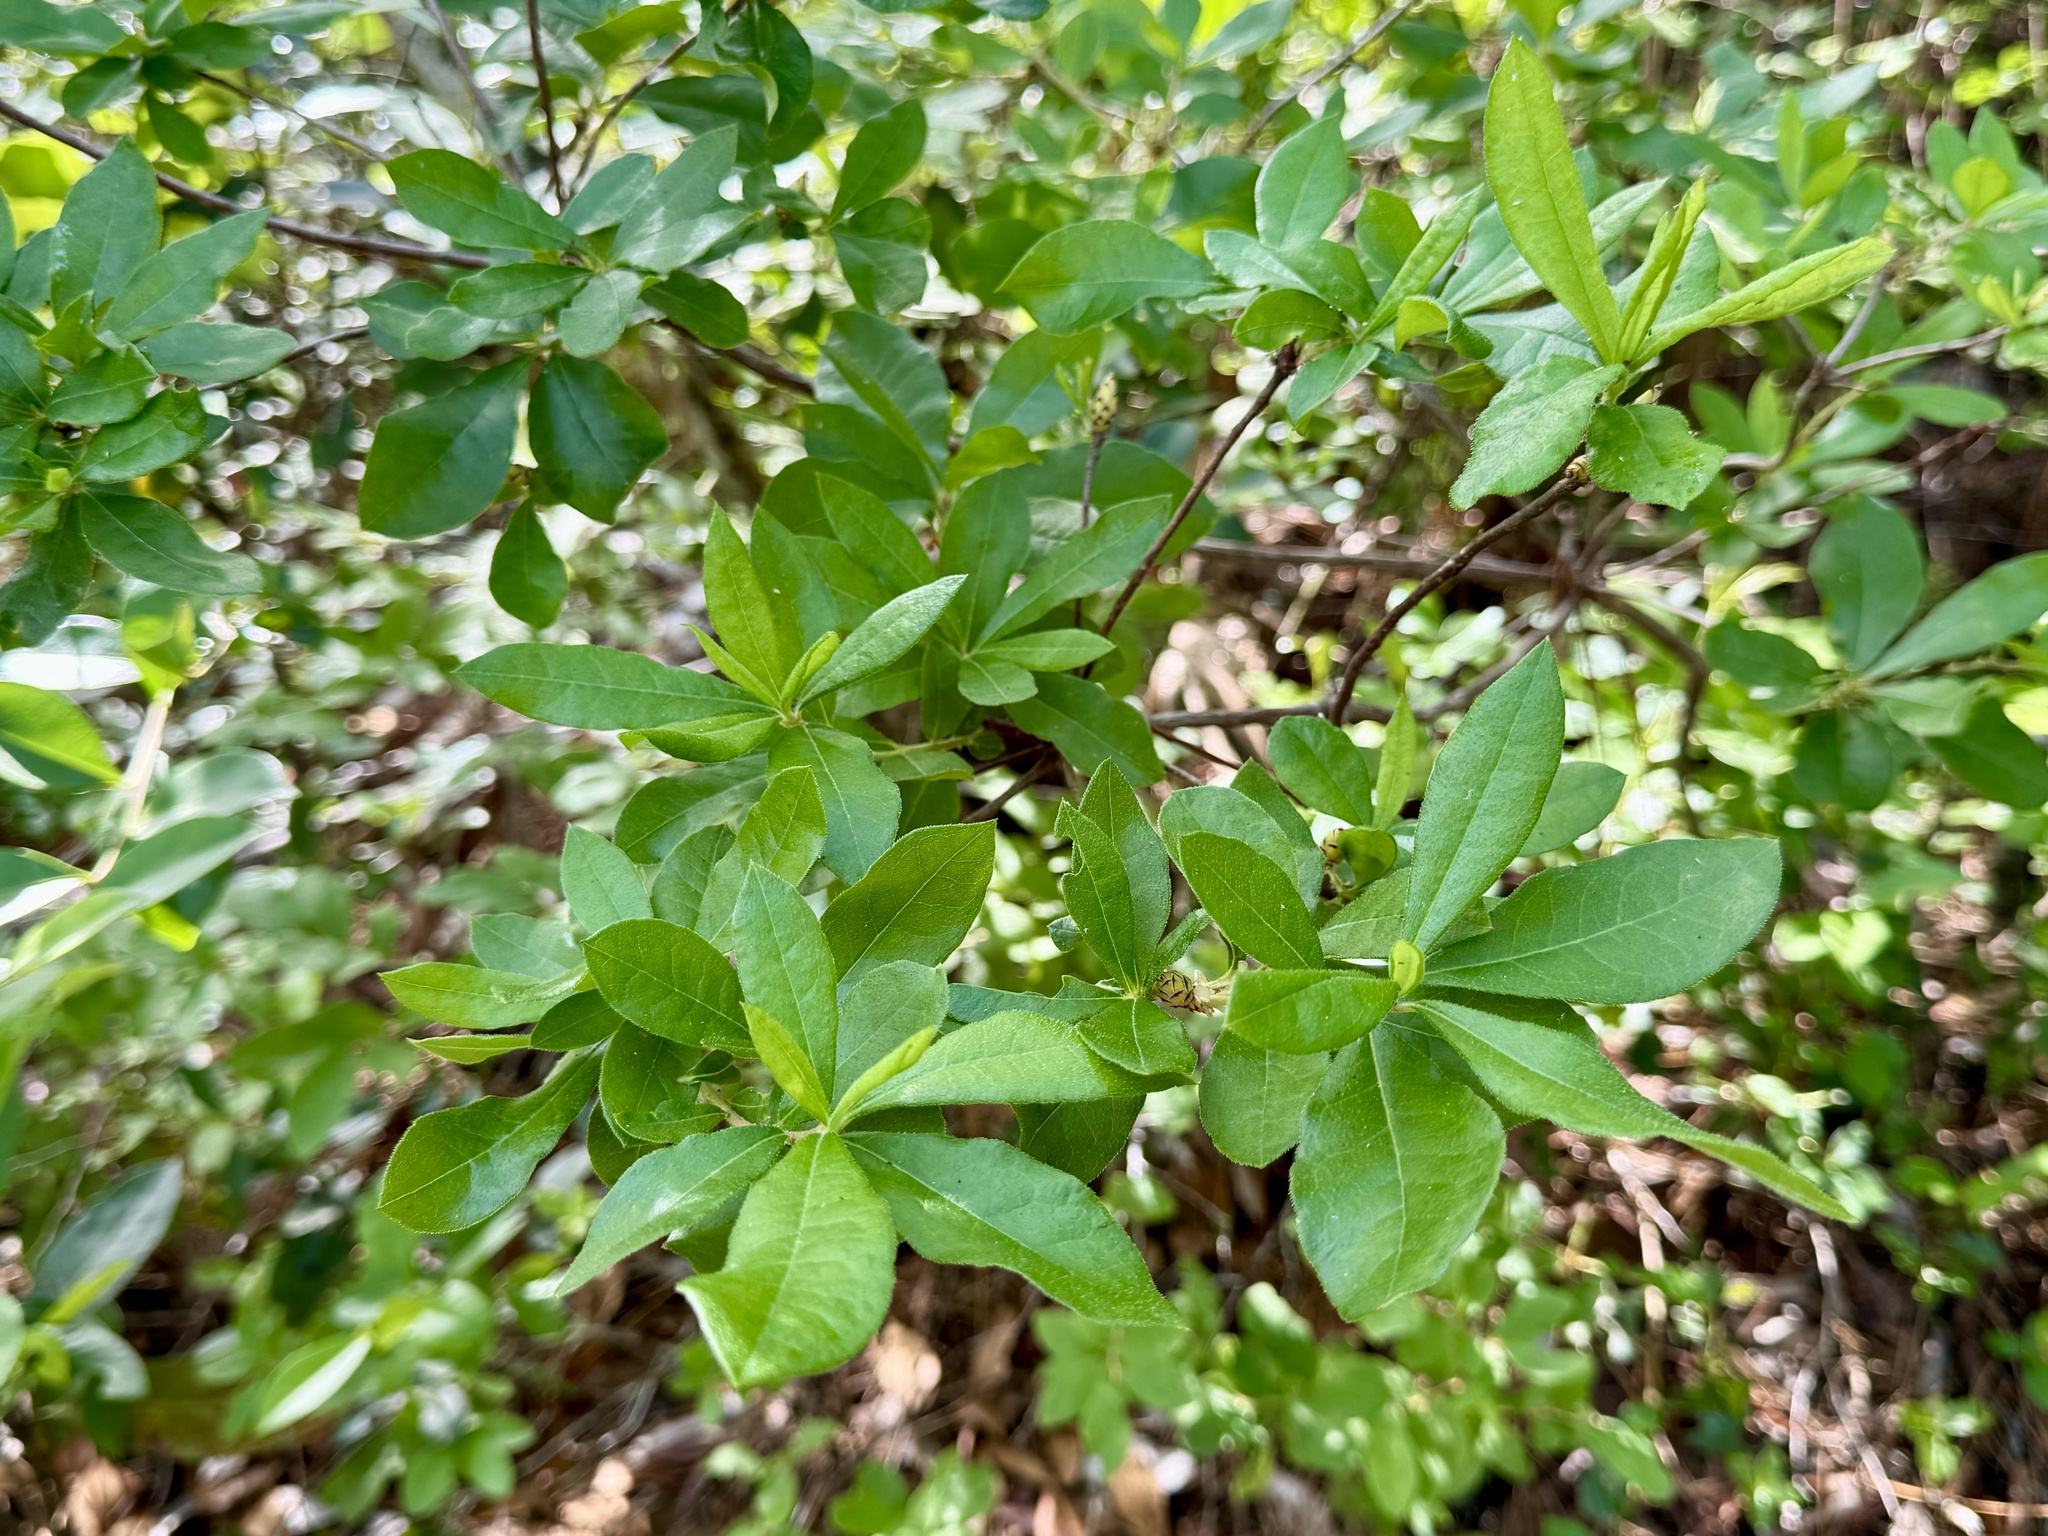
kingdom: Plantae
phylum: Tracheophyta
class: Magnoliopsida
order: Ericales
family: Ericaceae
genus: Rhododendron
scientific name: Rhododendron serrulatum
